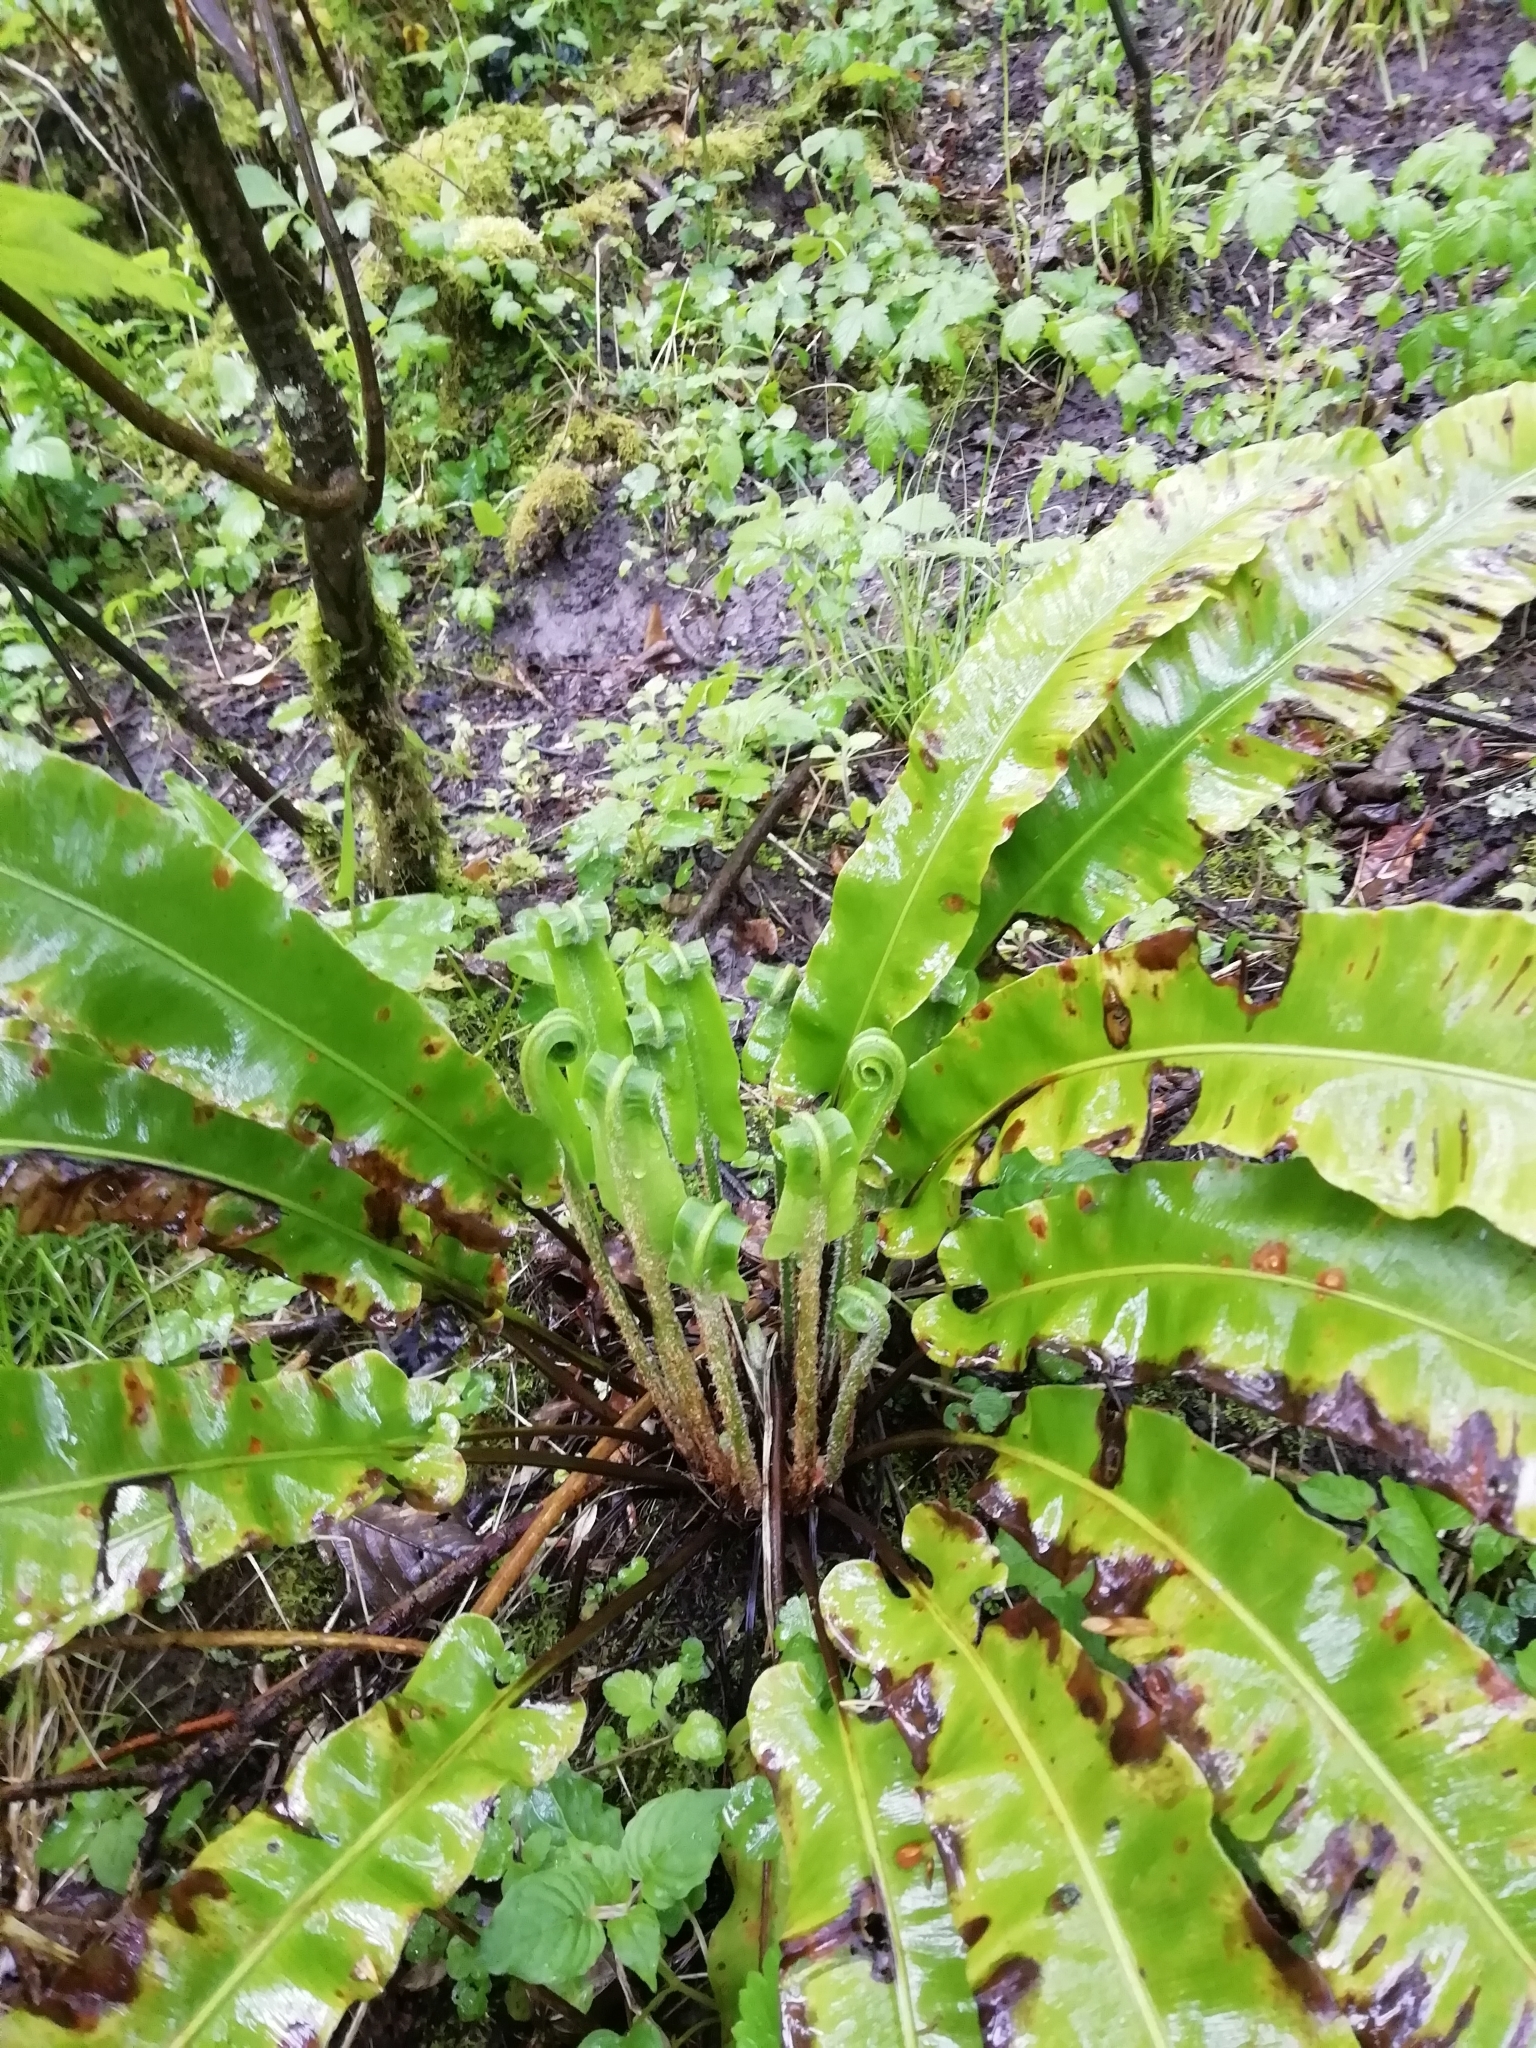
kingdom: Plantae
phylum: Tracheophyta
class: Polypodiopsida
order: Polypodiales
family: Aspleniaceae
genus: Asplenium
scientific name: Asplenium scolopendrium
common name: Hart's-tongue fern
